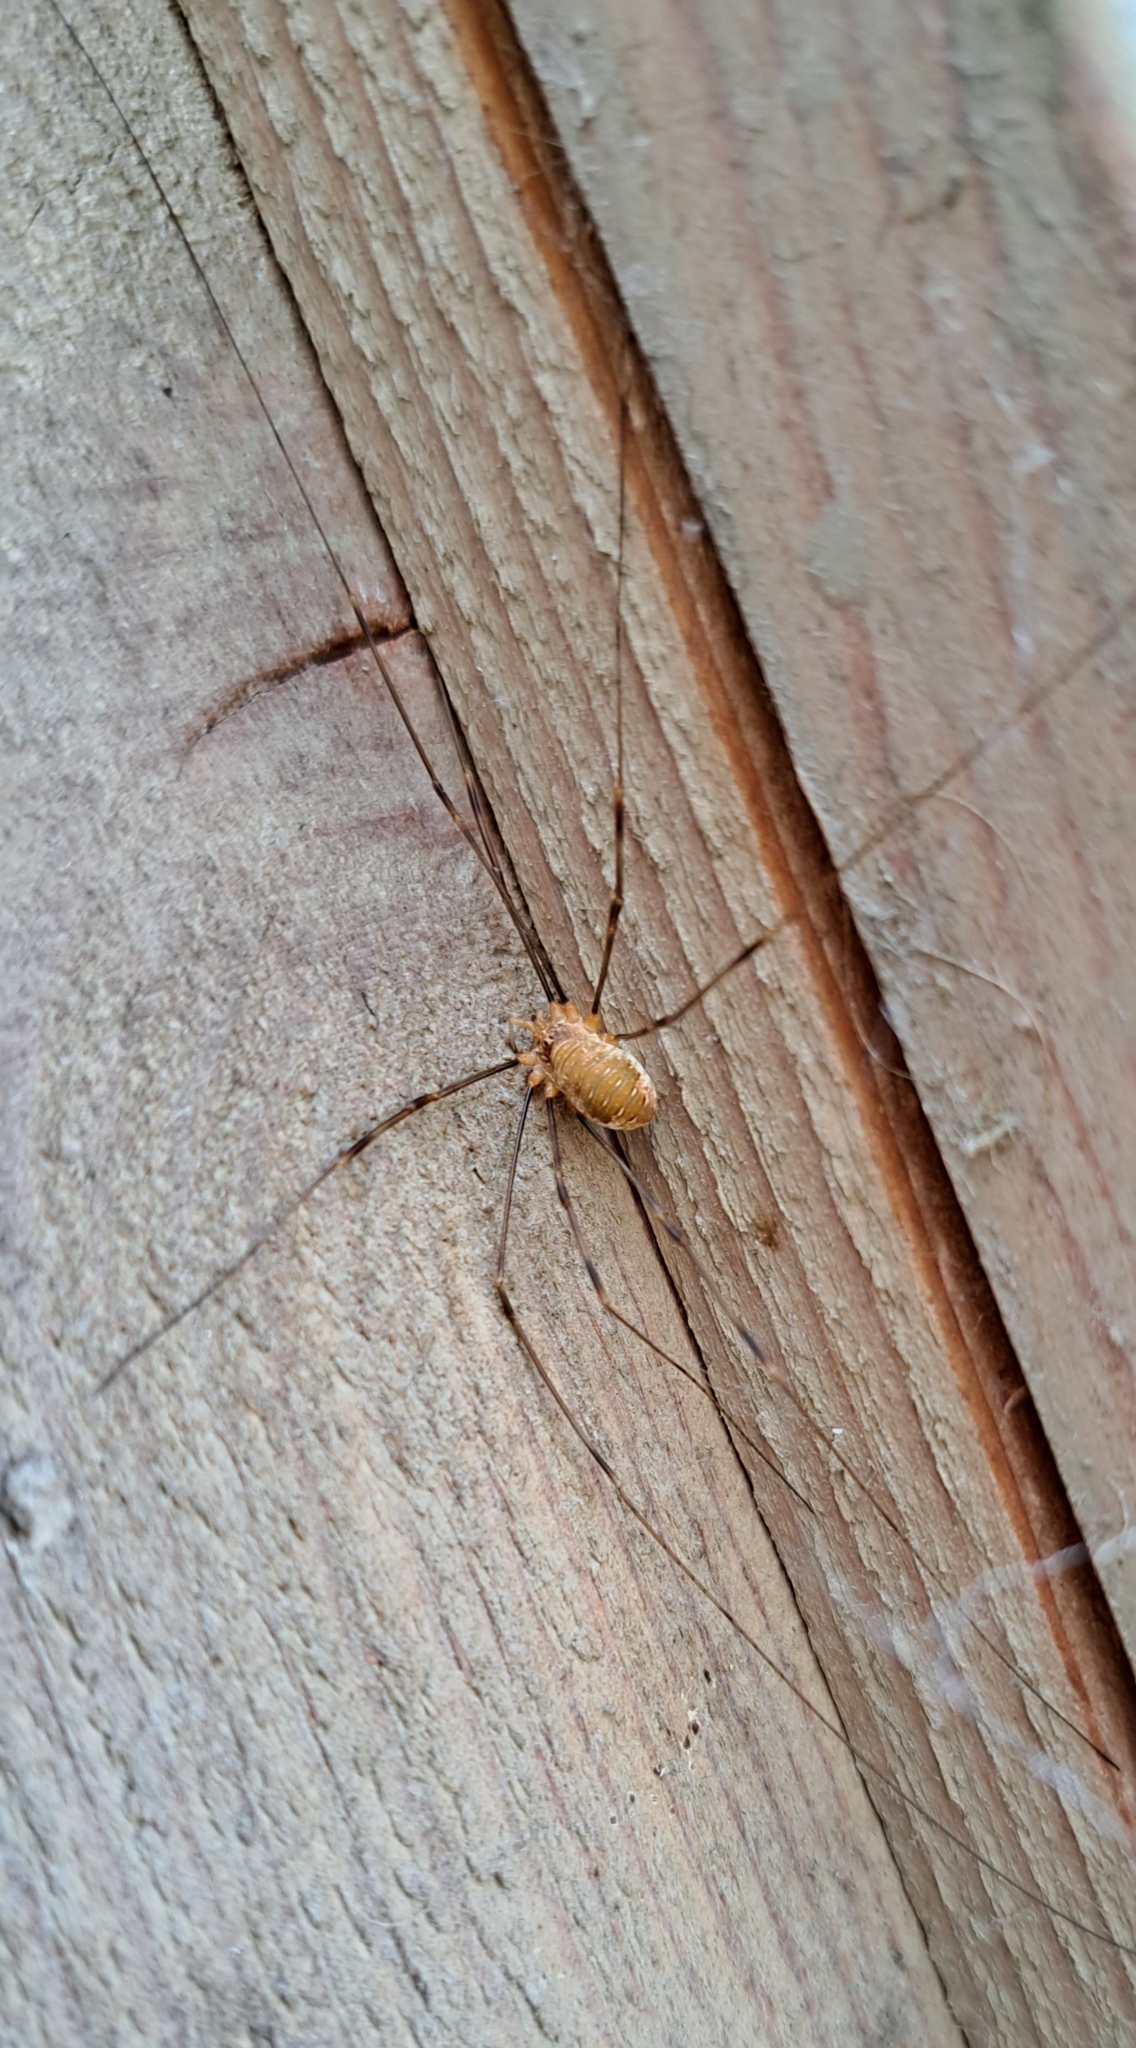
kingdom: Animalia
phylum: Arthropoda
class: Arachnida
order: Opiliones
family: Phalangiidae
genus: Opilio
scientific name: Opilio canestrinii
